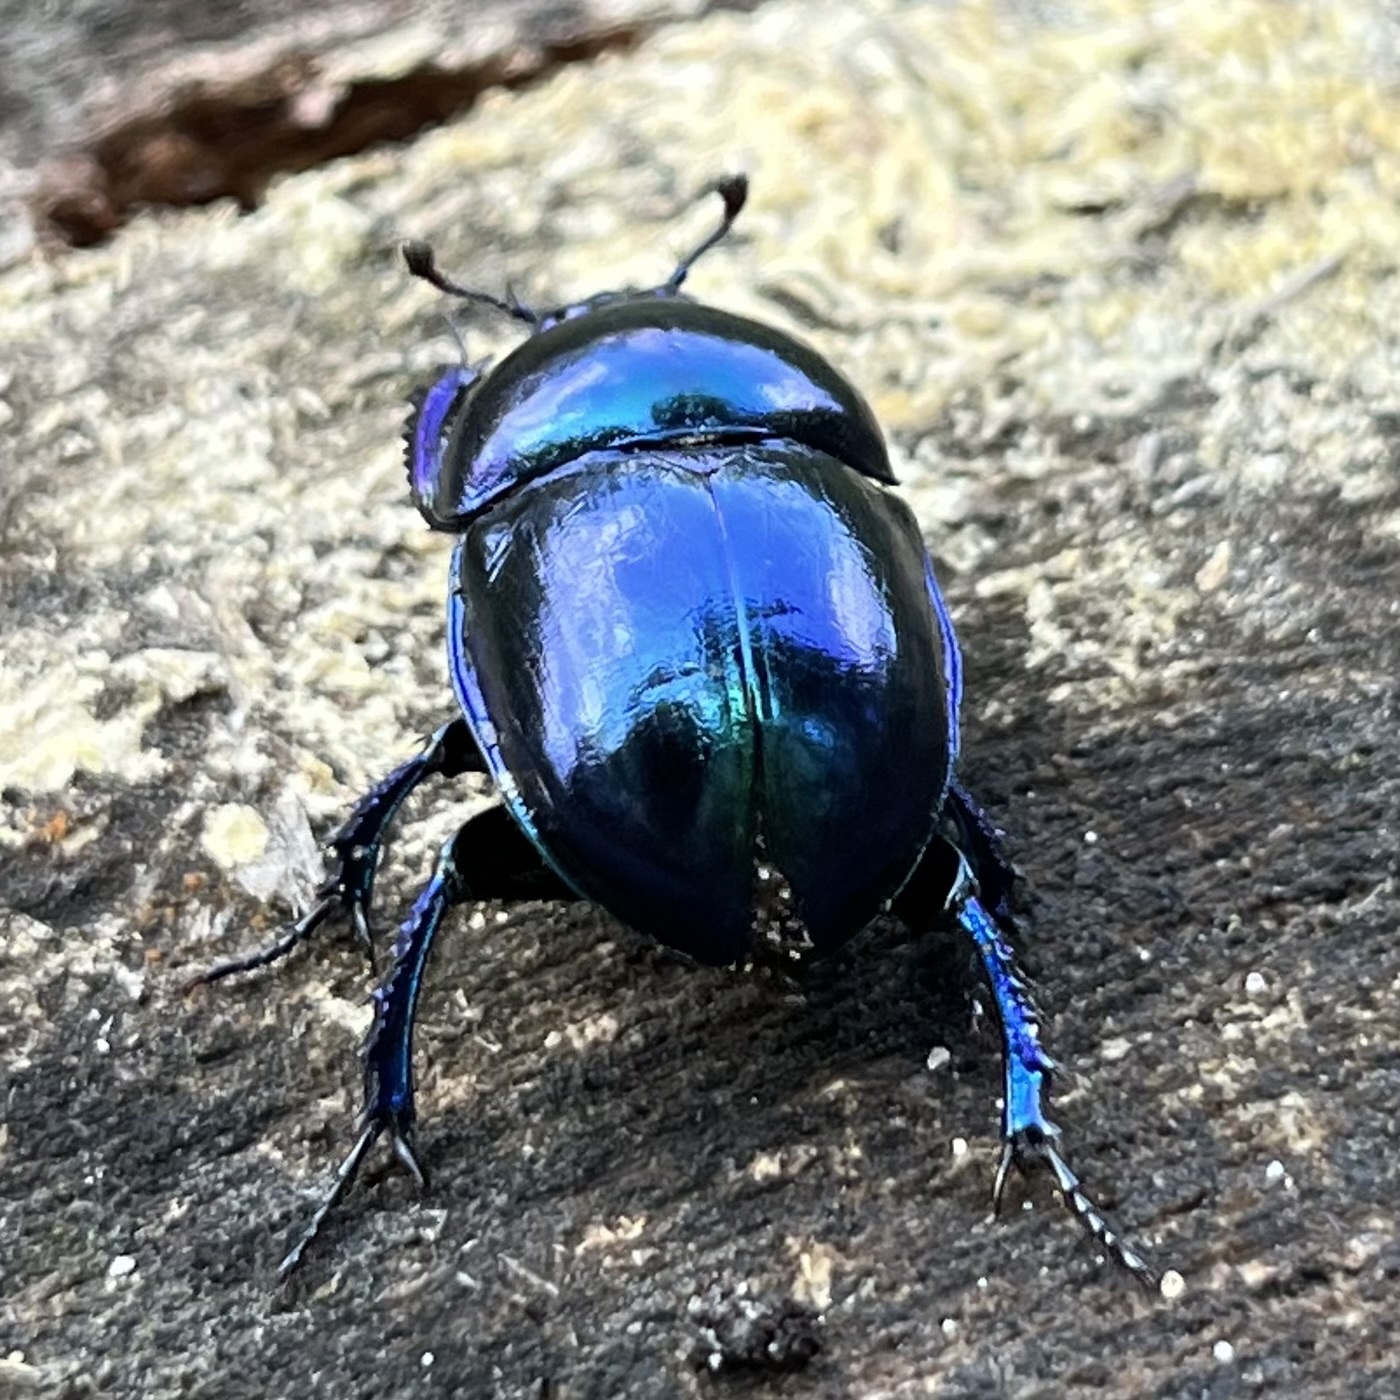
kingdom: Animalia
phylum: Arthropoda
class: Insecta
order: Coleoptera
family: Geotrupidae
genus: Trypocopris
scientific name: Trypocopris vernalis
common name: Spring dumbledor
